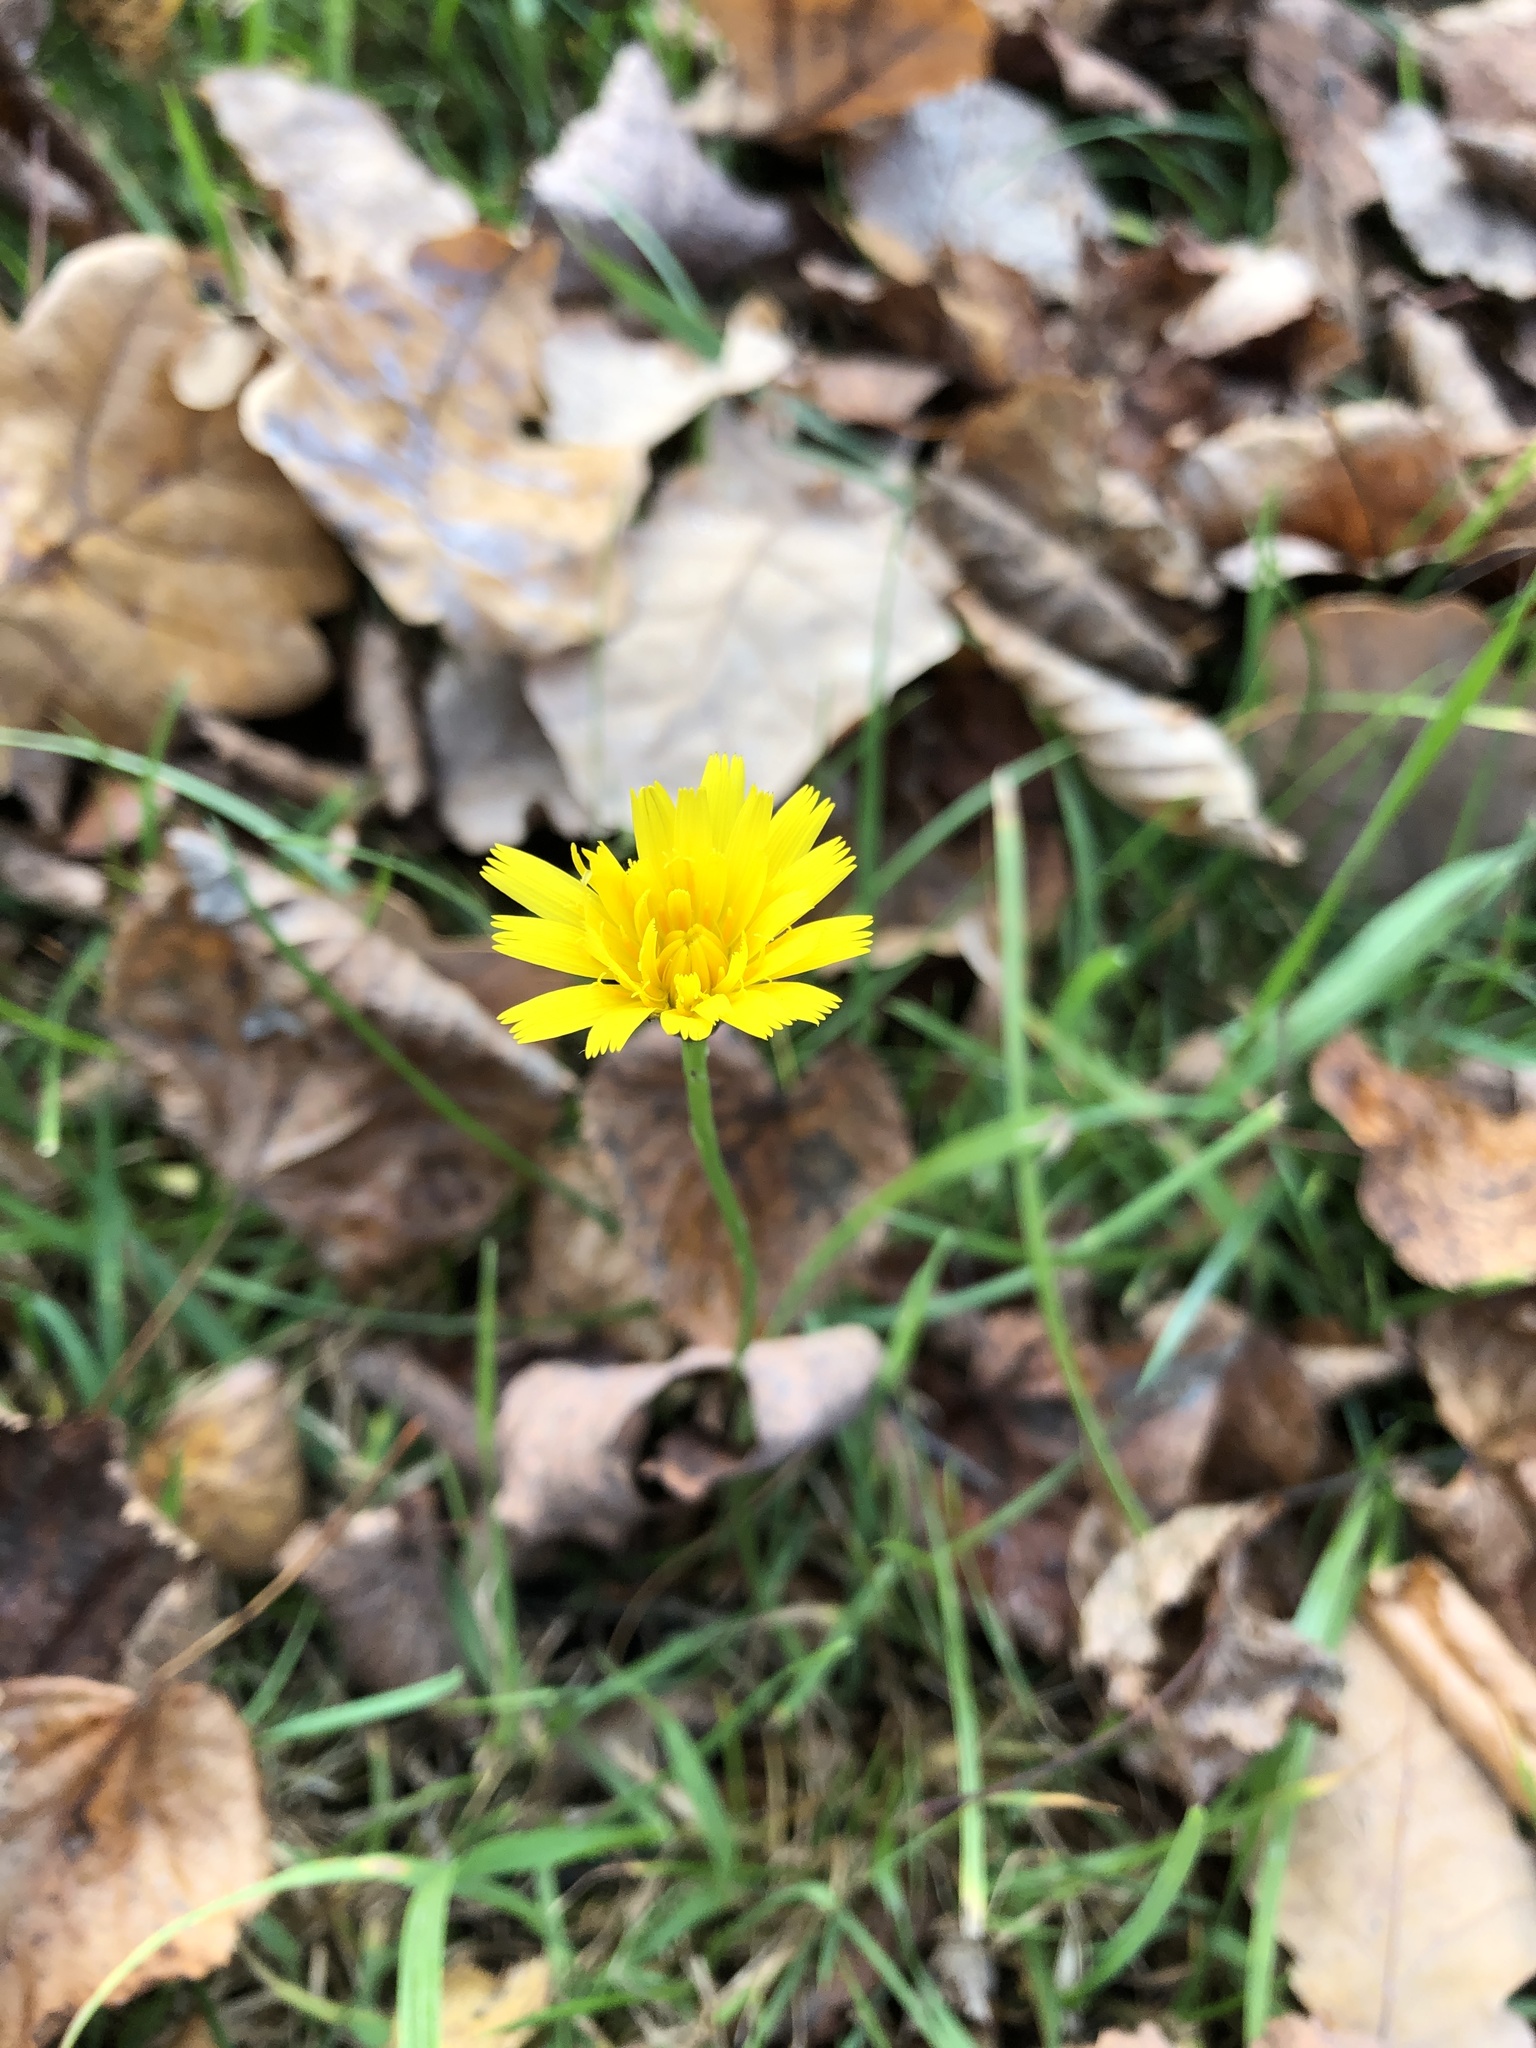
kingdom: Plantae
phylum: Tracheophyta
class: Magnoliopsida
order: Asterales
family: Asteraceae
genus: Scorzoneroides
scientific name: Scorzoneroides autumnalis
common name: Autumn hawkbit
